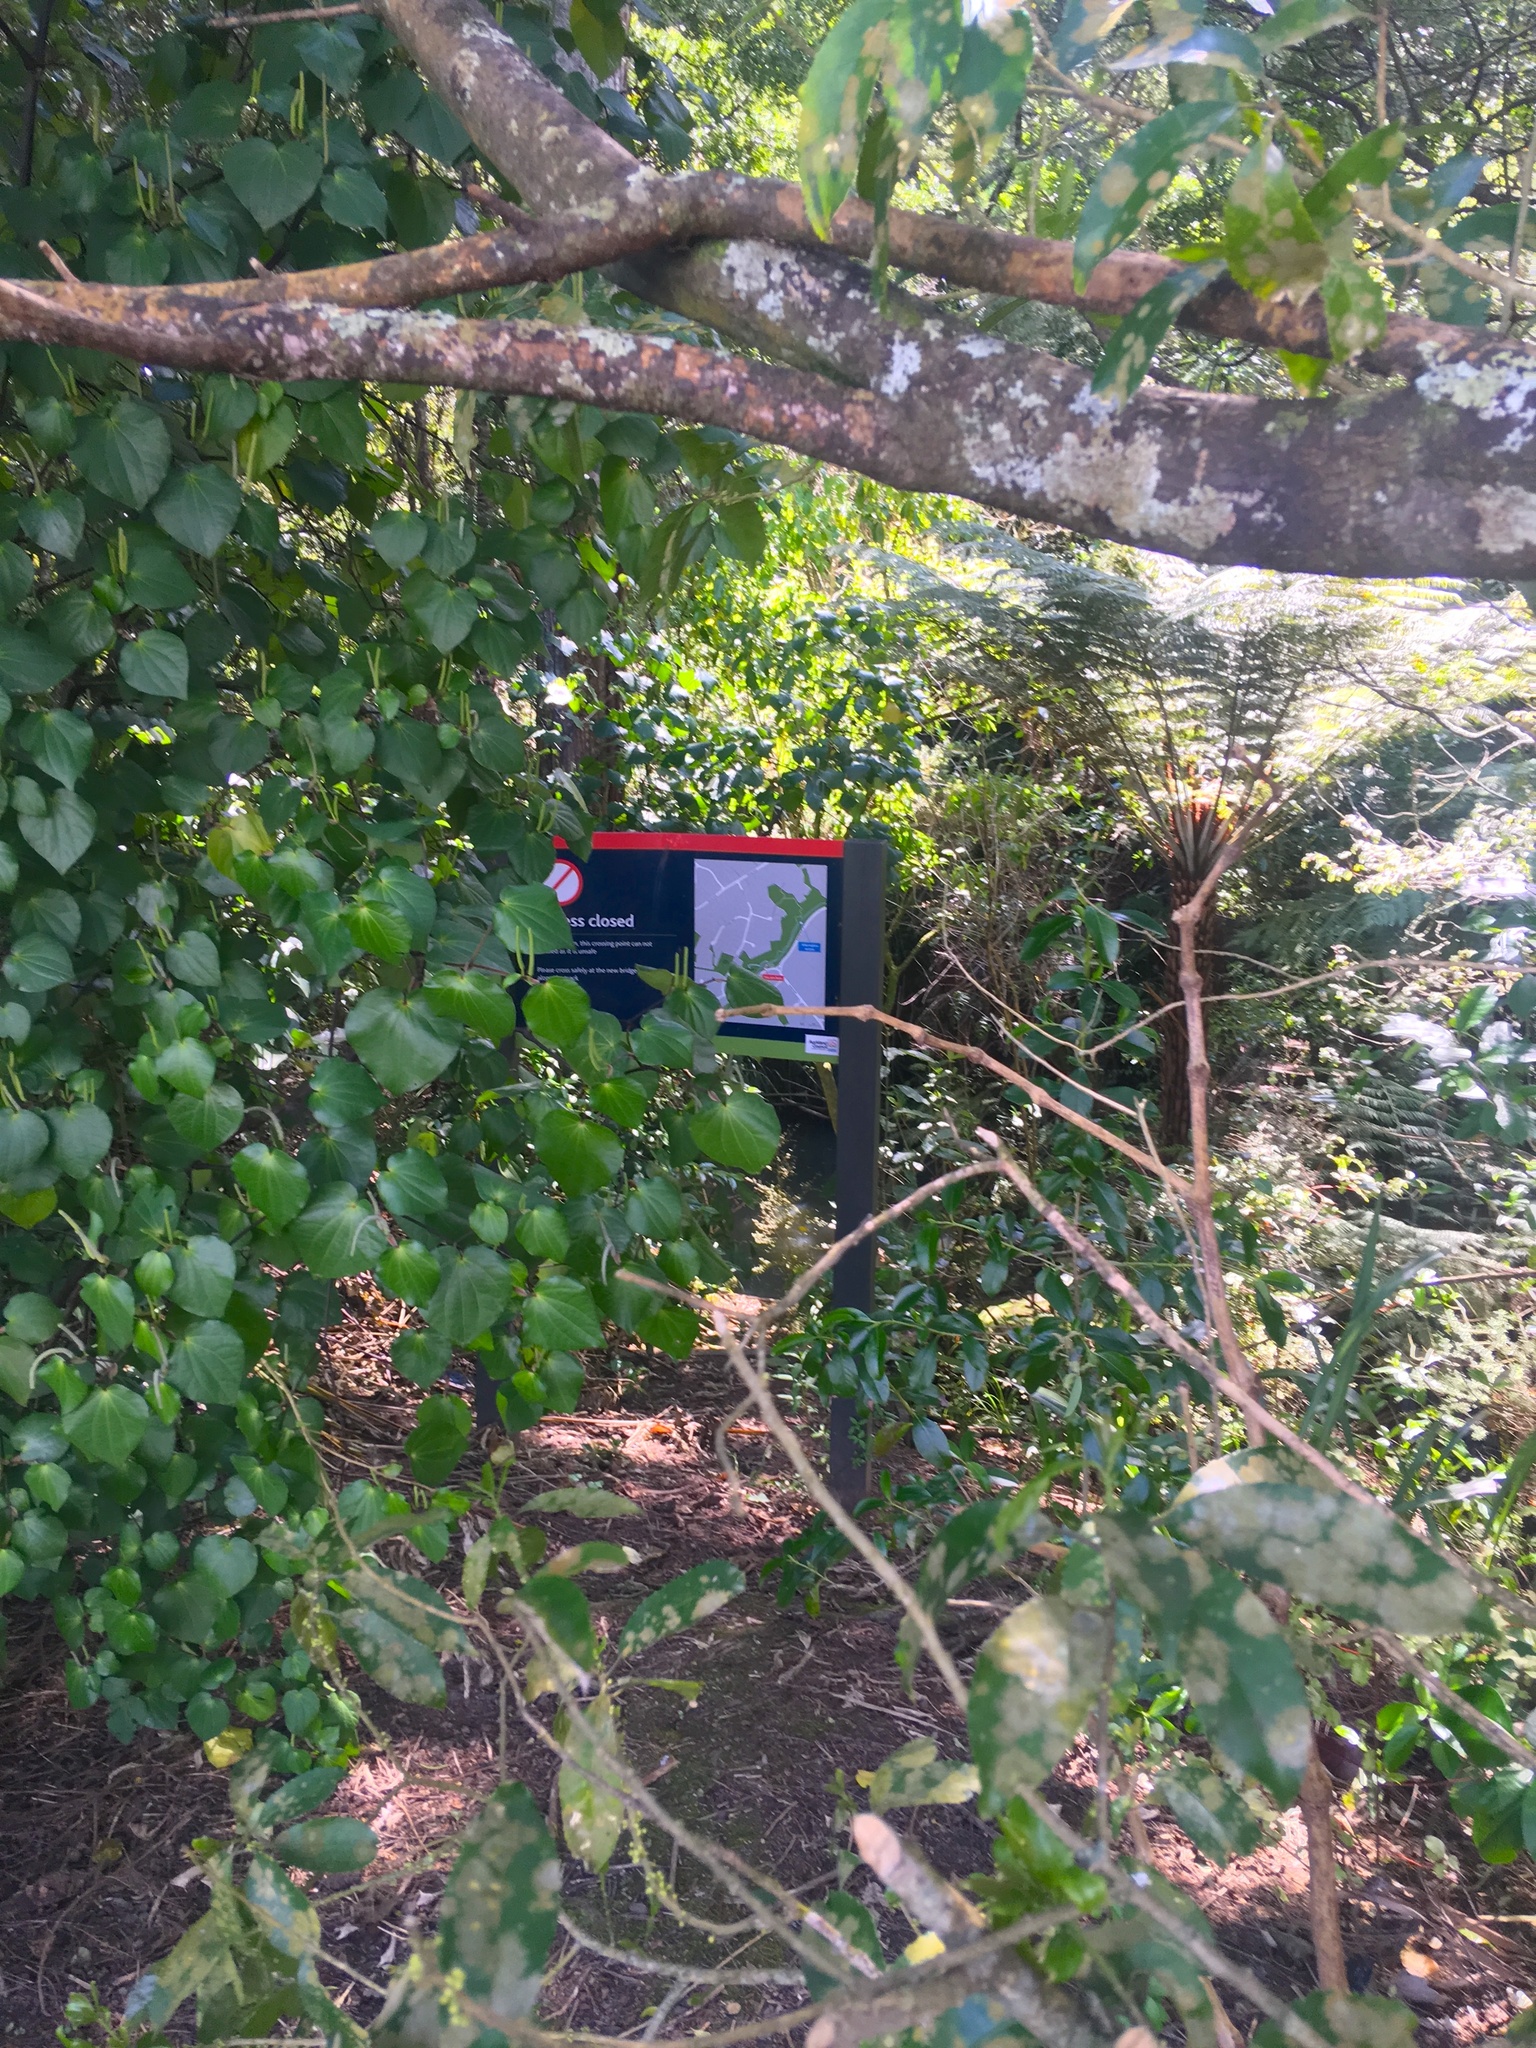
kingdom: Plantae
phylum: Chlorophyta
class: Ulvophyceae
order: Trentepohliales
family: Trentepohliaceae
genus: Cephaleuros
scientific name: Cephaleuros
